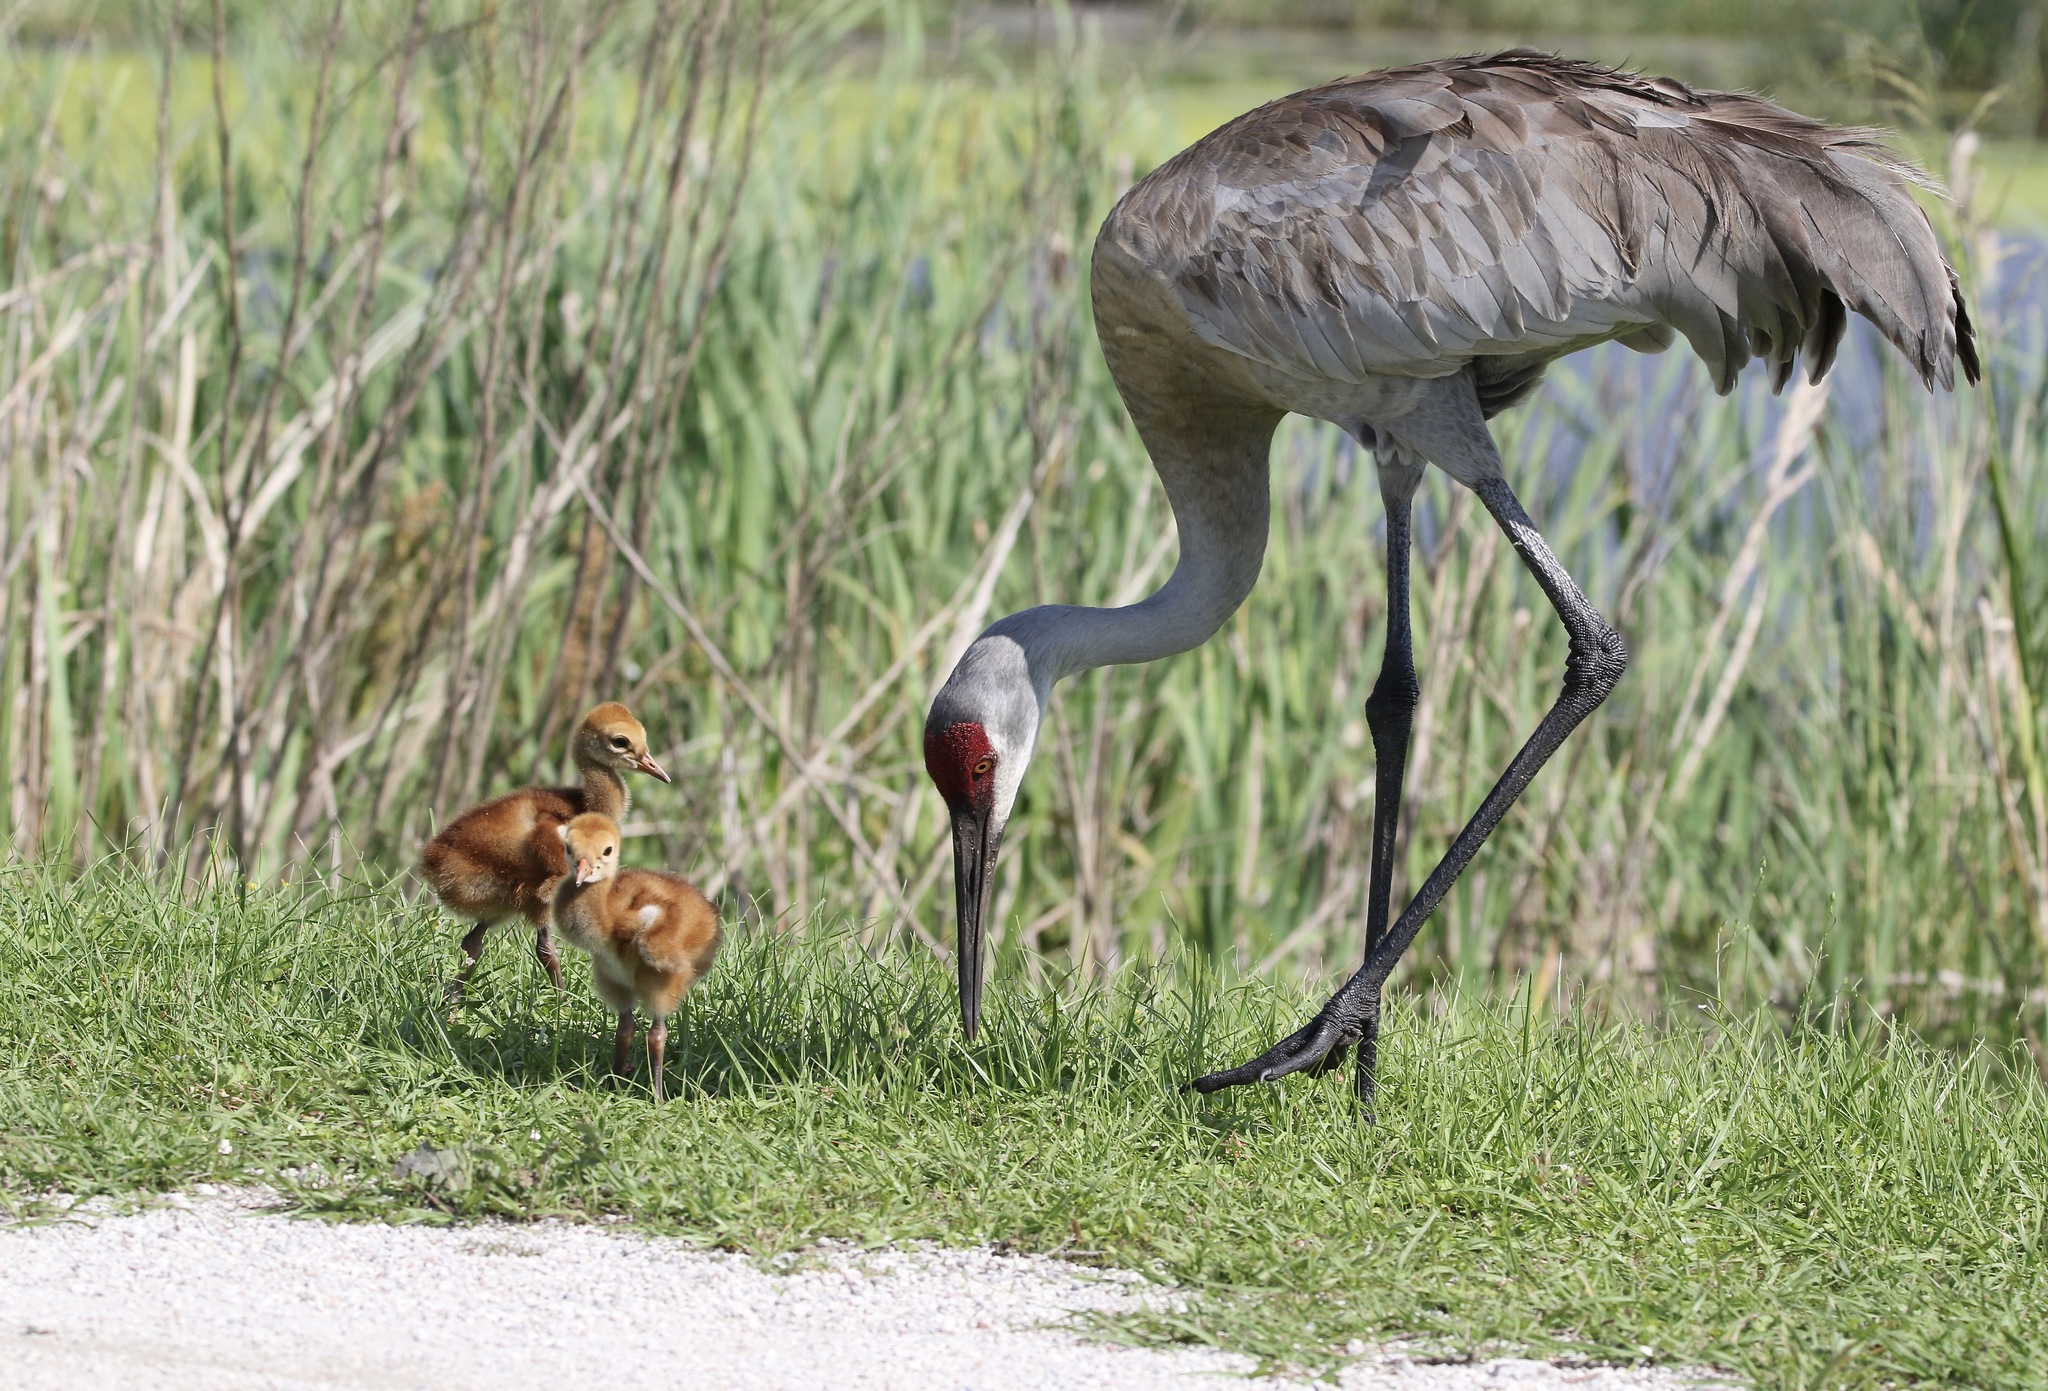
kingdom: Animalia
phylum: Chordata
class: Aves
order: Gruiformes
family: Gruidae
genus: Grus
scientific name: Grus canadensis
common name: Sandhill crane
